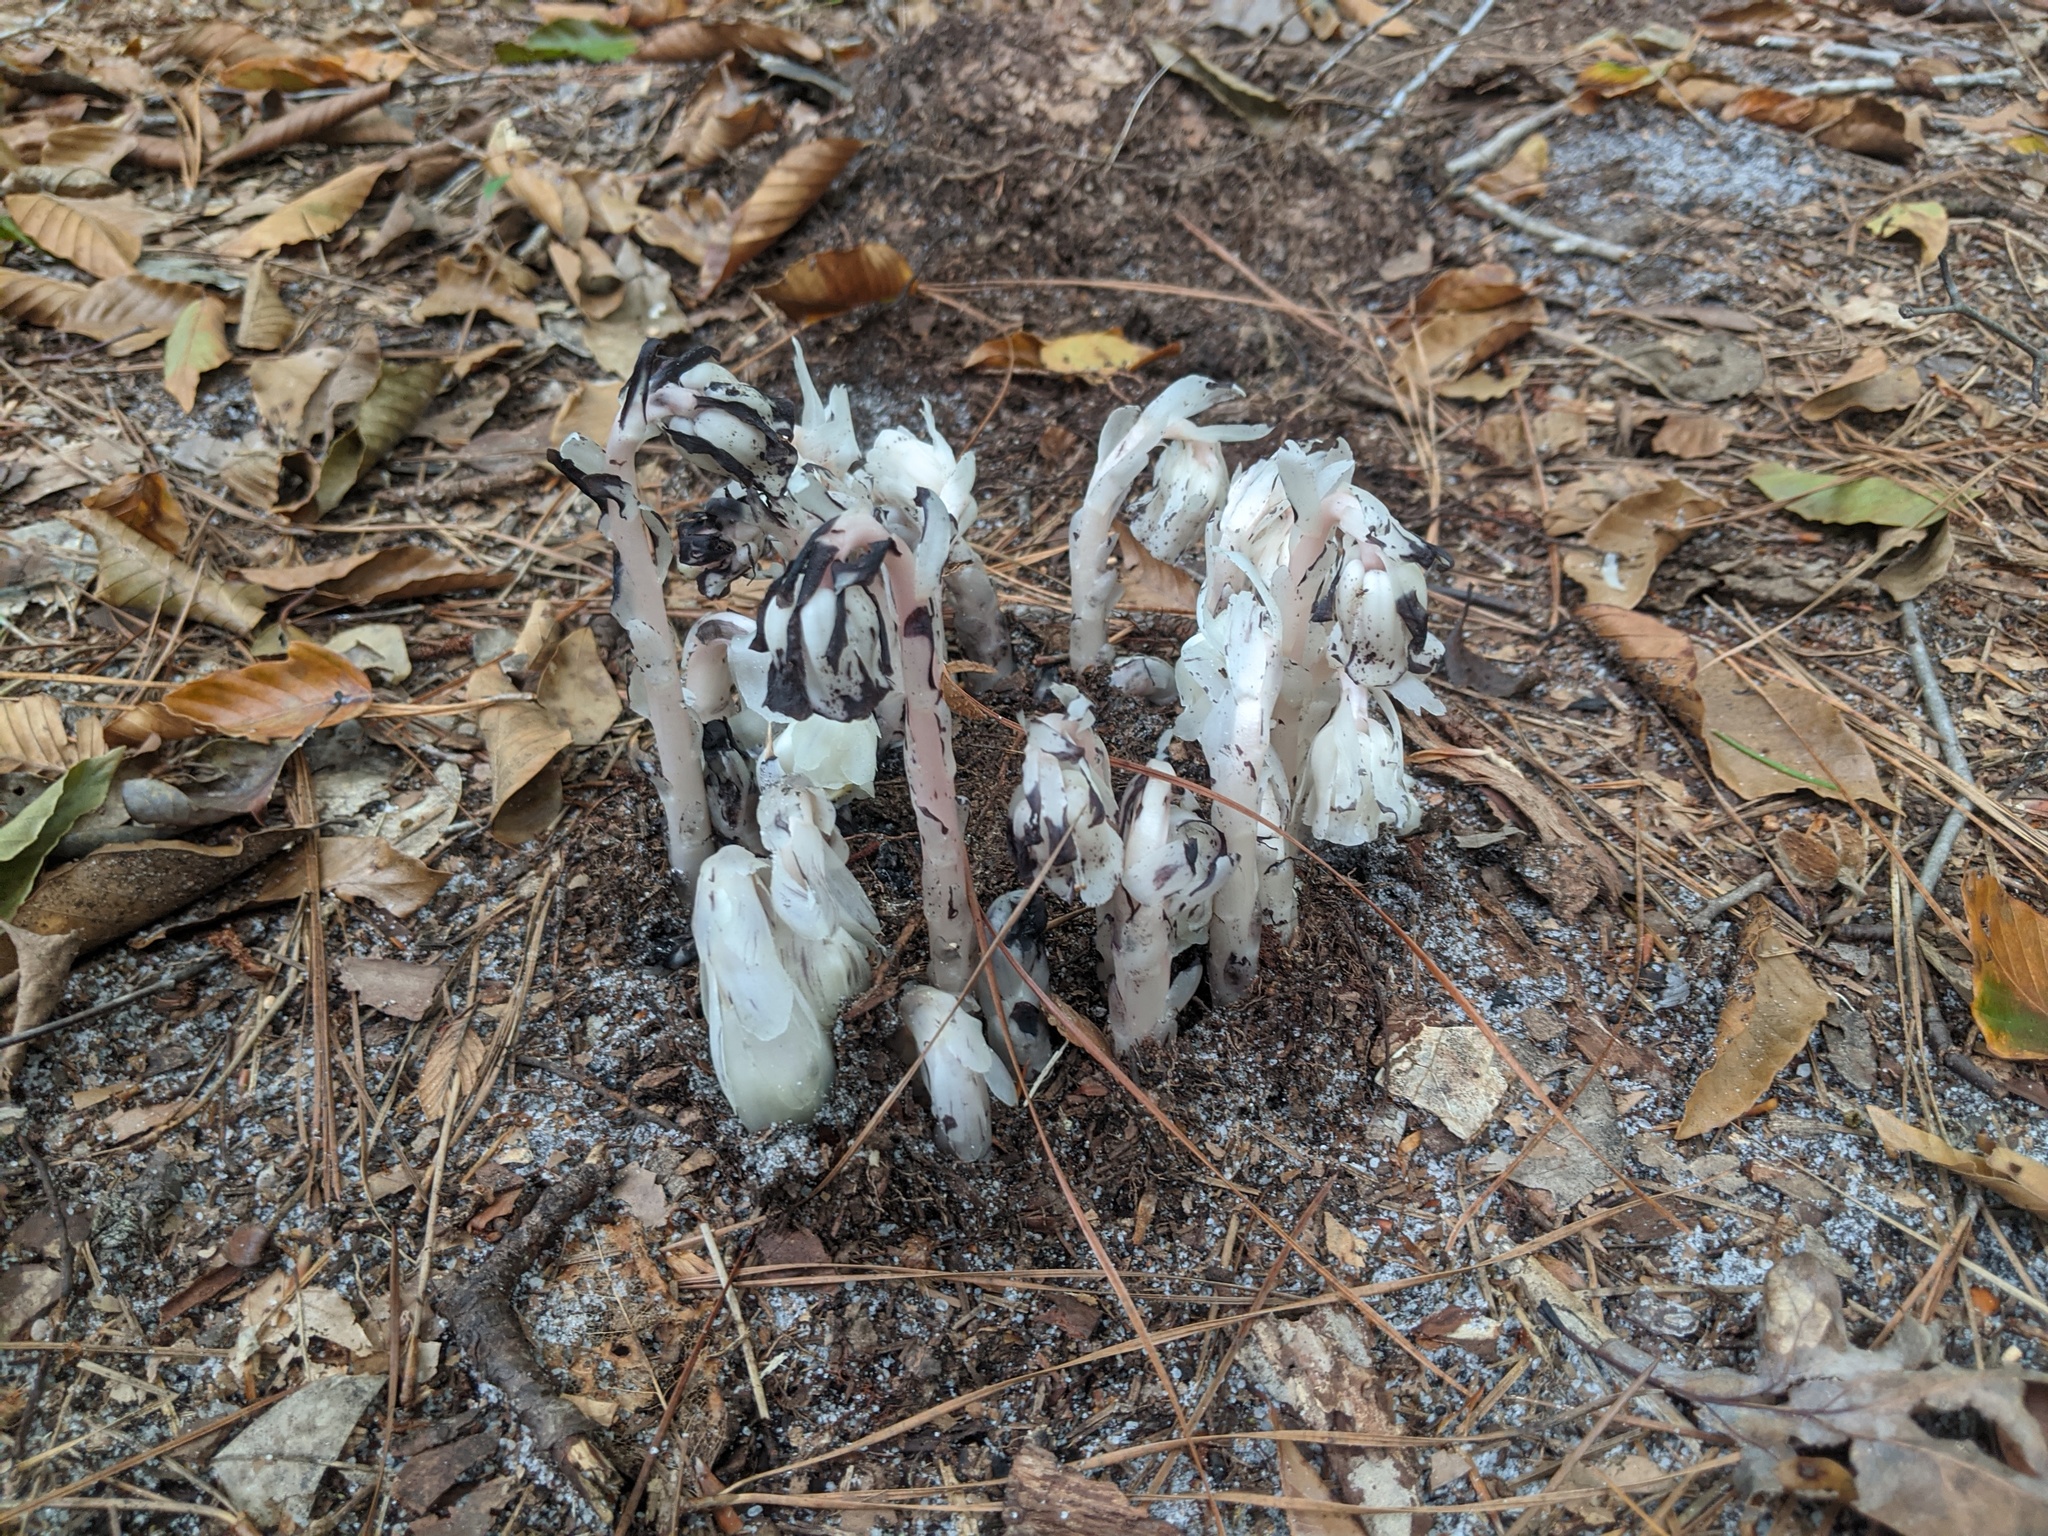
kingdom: Plantae
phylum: Tracheophyta
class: Magnoliopsida
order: Ericales
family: Ericaceae
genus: Monotropa
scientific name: Monotropa uniflora
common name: Convulsion root
